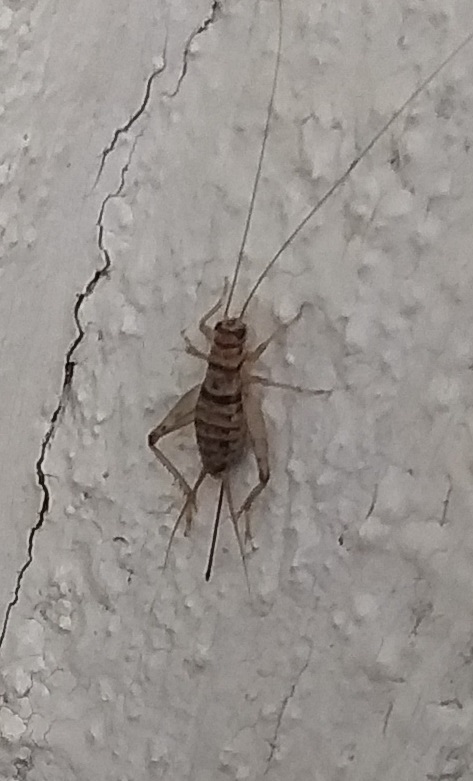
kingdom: Animalia
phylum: Arthropoda
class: Insecta
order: Orthoptera
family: Gryllidae
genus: Gryllodes
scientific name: Gryllodes sigillatus
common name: Tropical house cricket
